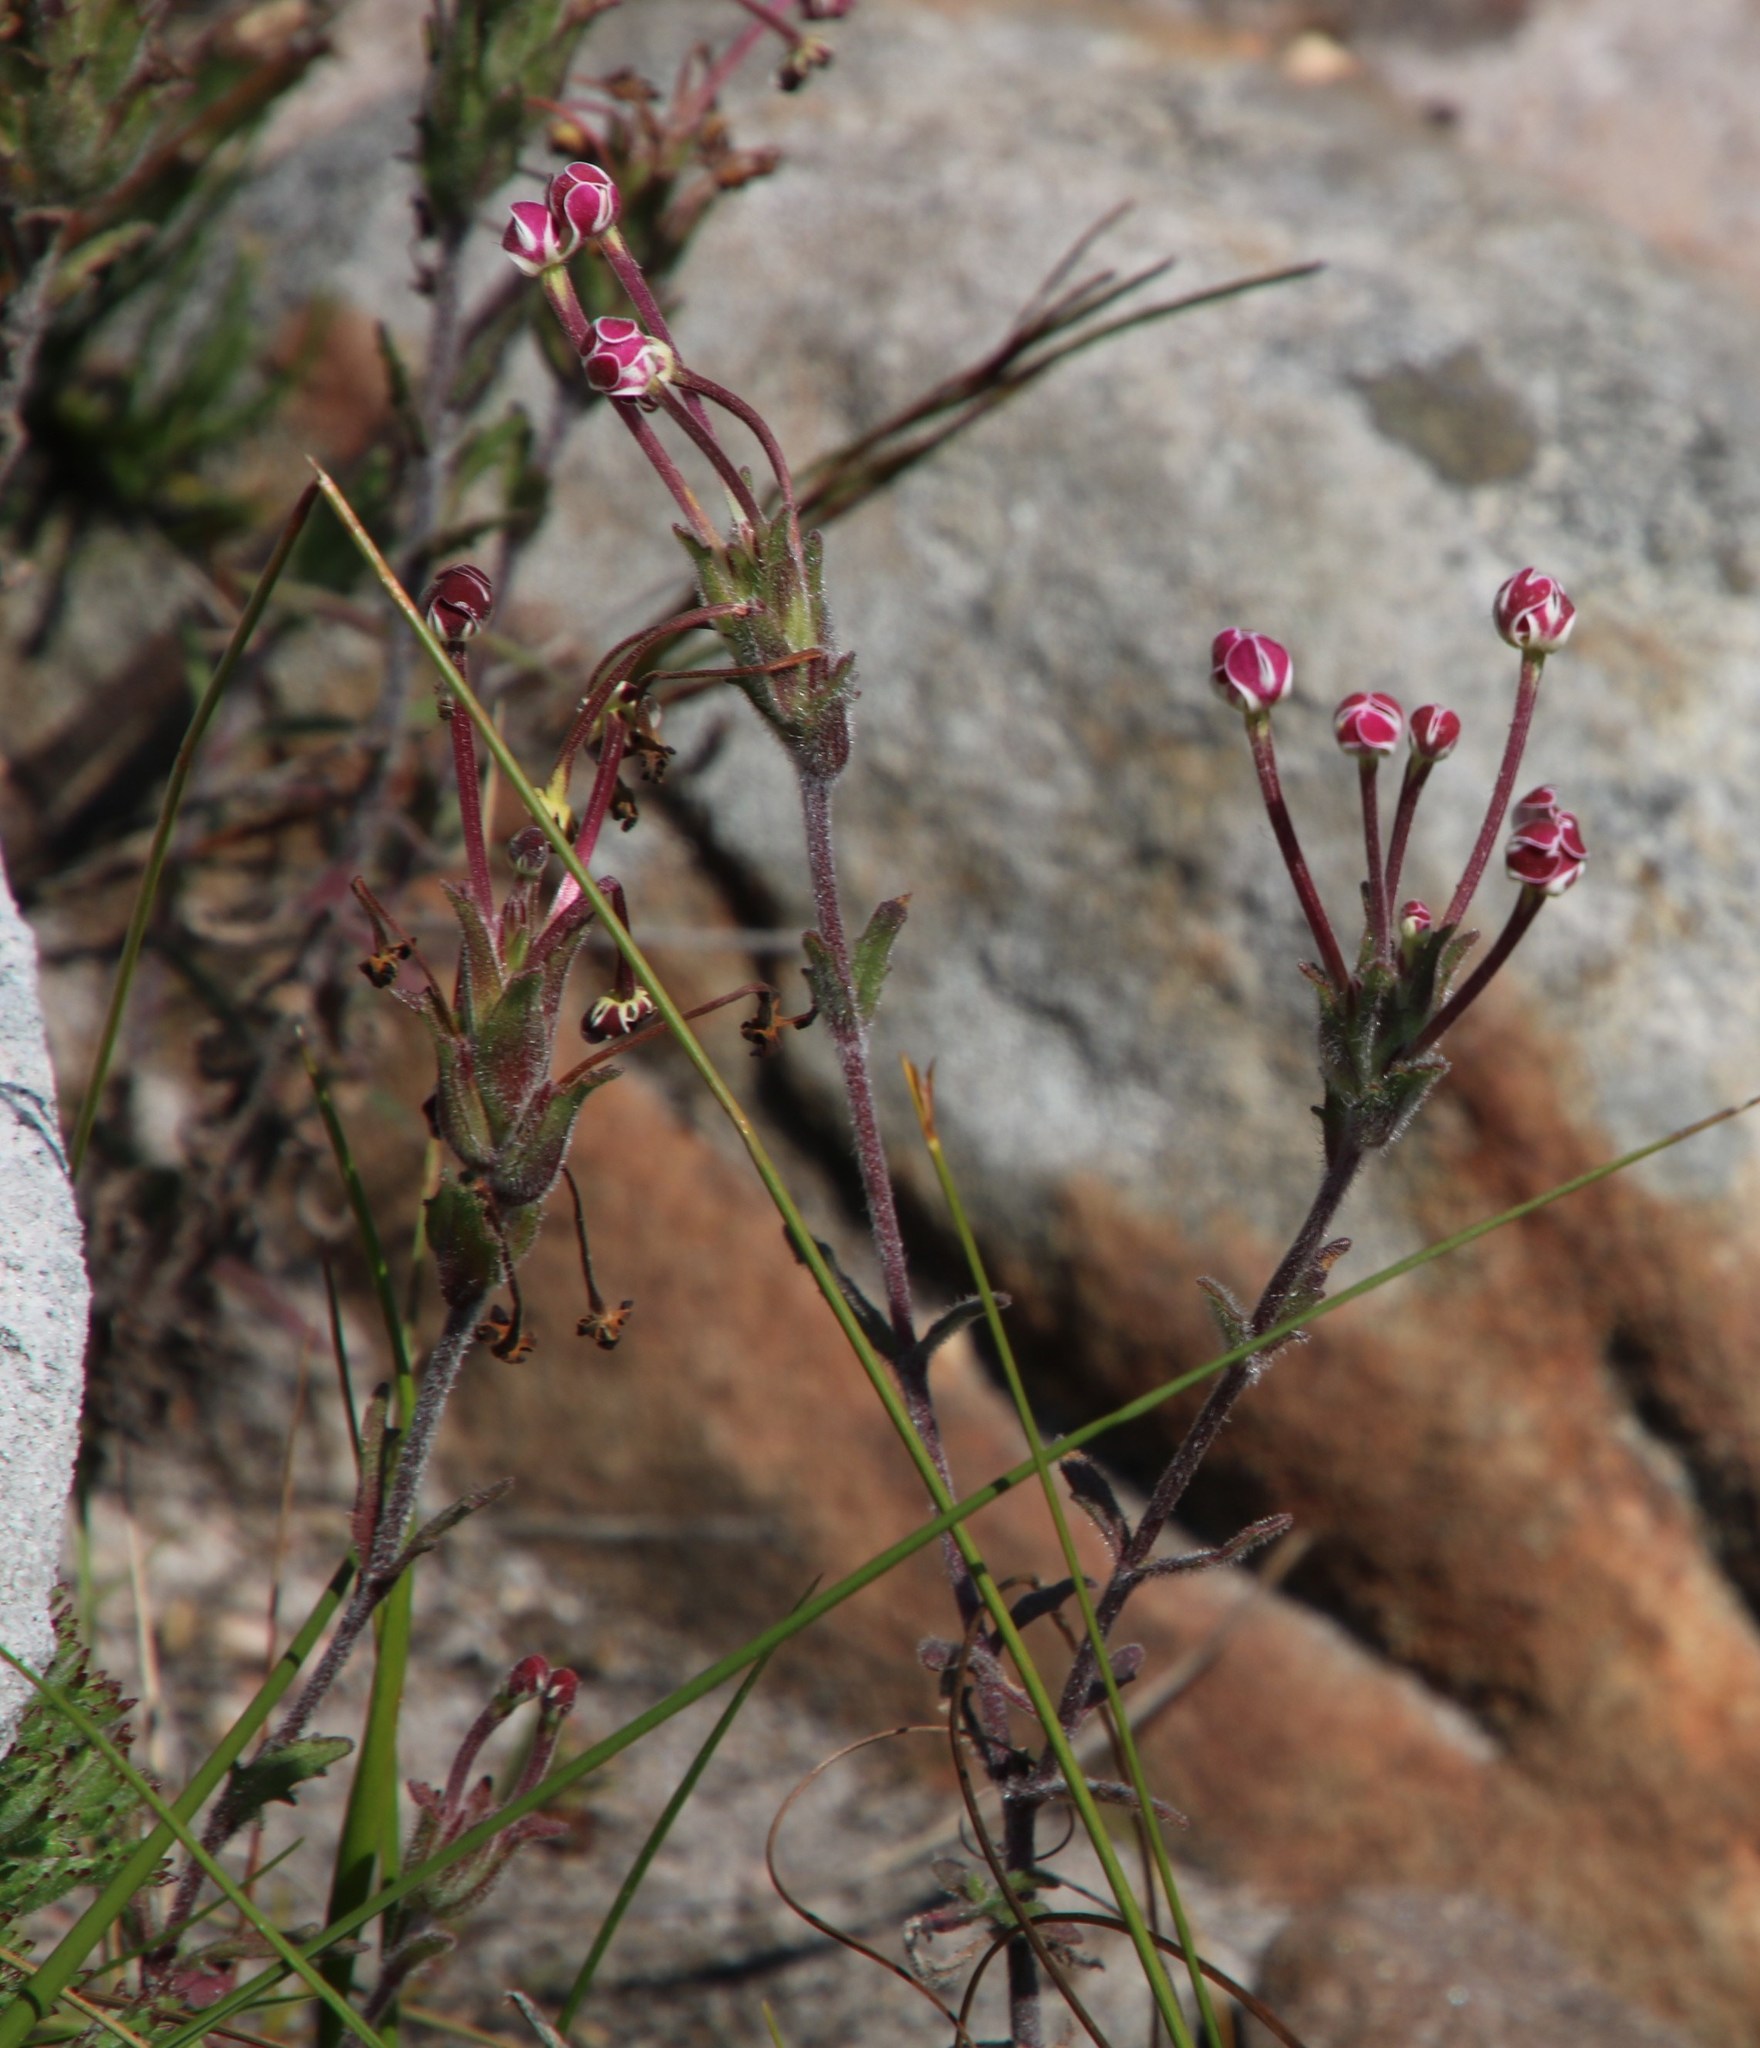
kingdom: Plantae
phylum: Tracheophyta
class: Magnoliopsida
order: Lamiales
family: Scrophulariaceae
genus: Zaluzianskya
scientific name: Zaluzianskya capensis
